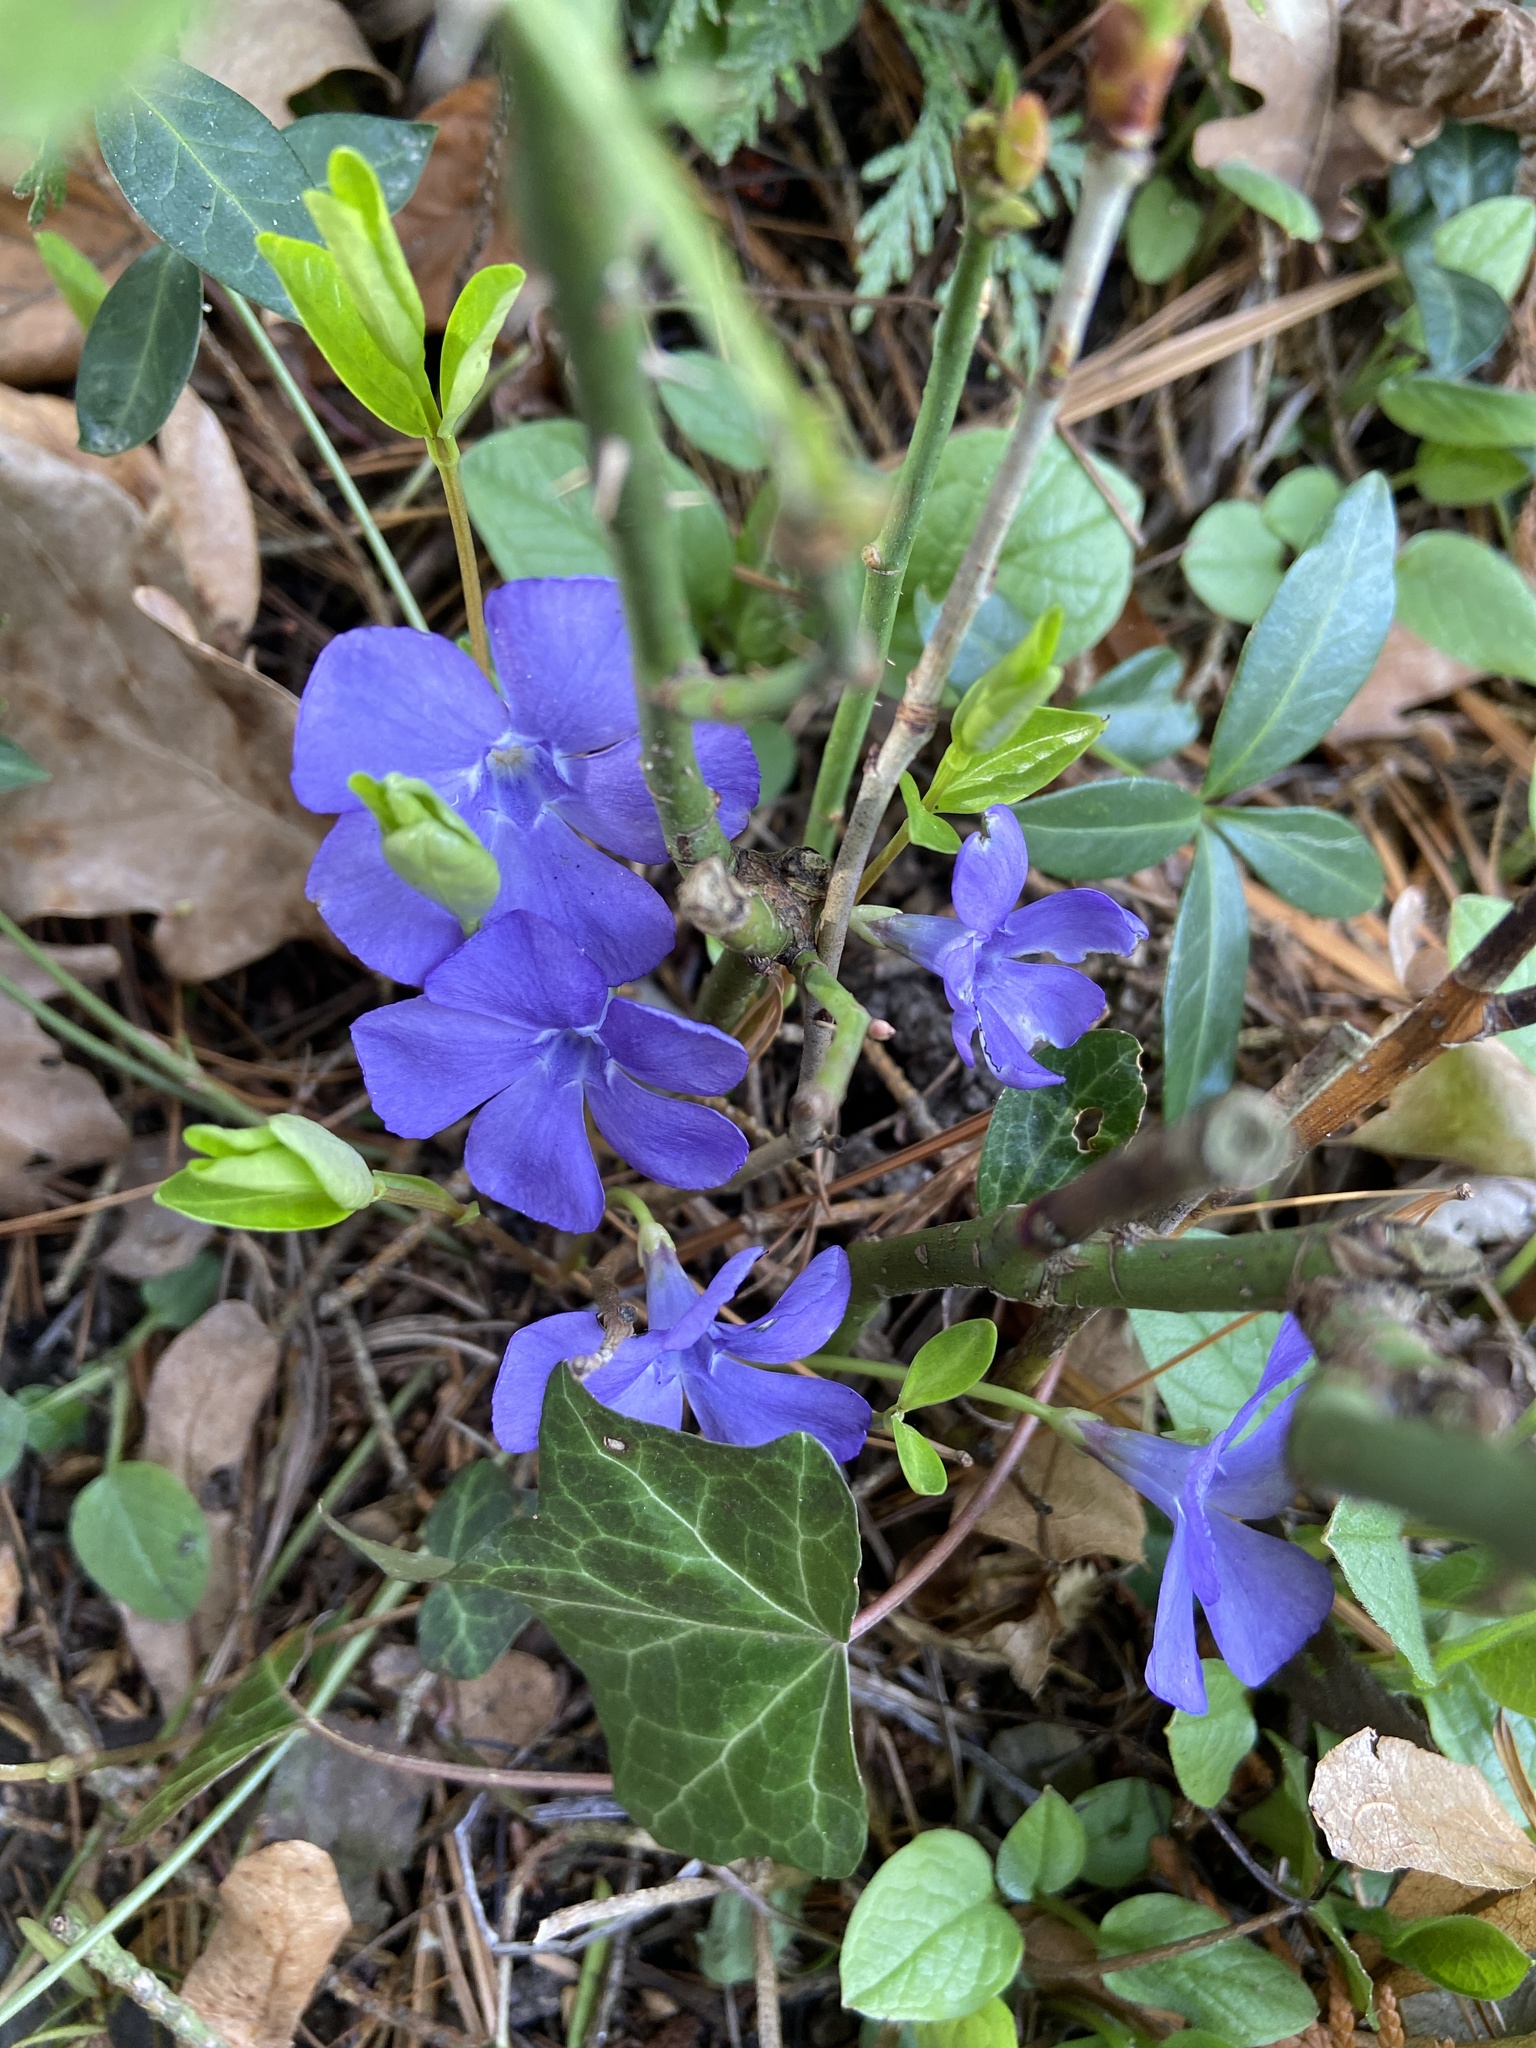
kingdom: Plantae
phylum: Tracheophyta
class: Magnoliopsida
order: Gentianales
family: Apocynaceae
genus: Vinca
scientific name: Vinca minor
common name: Lesser periwinkle
